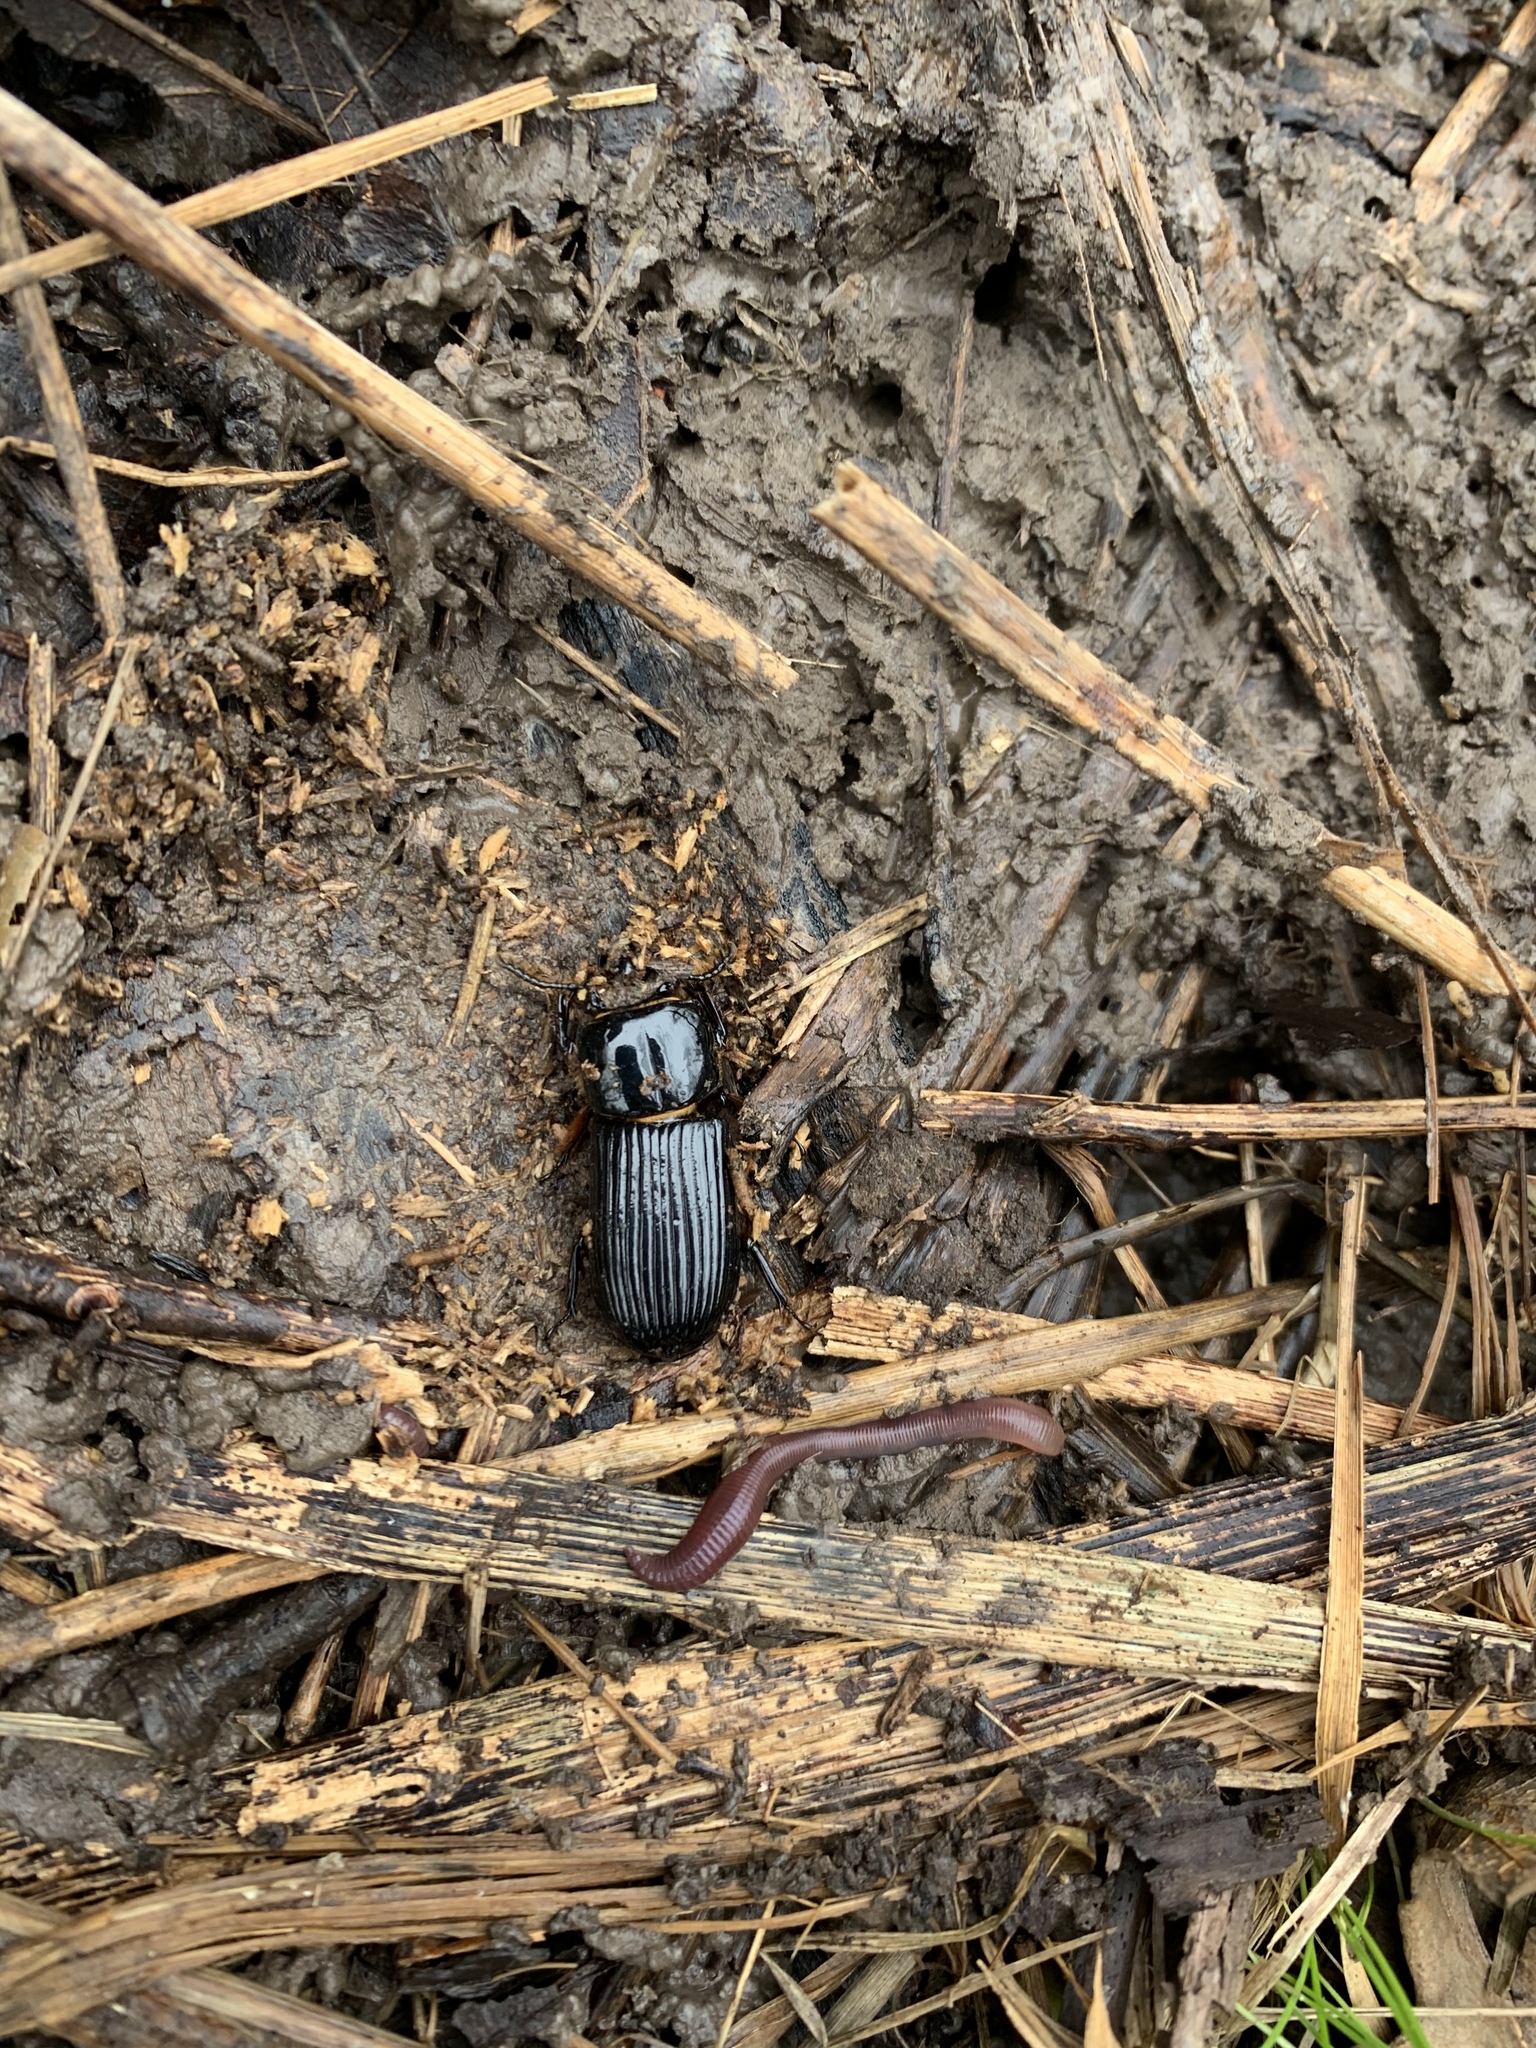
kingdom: Animalia
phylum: Arthropoda
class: Insecta
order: Coleoptera
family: Passalidae
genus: Odontotaenius
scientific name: Odontotaenius disjunctus
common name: Patent leather beetle
